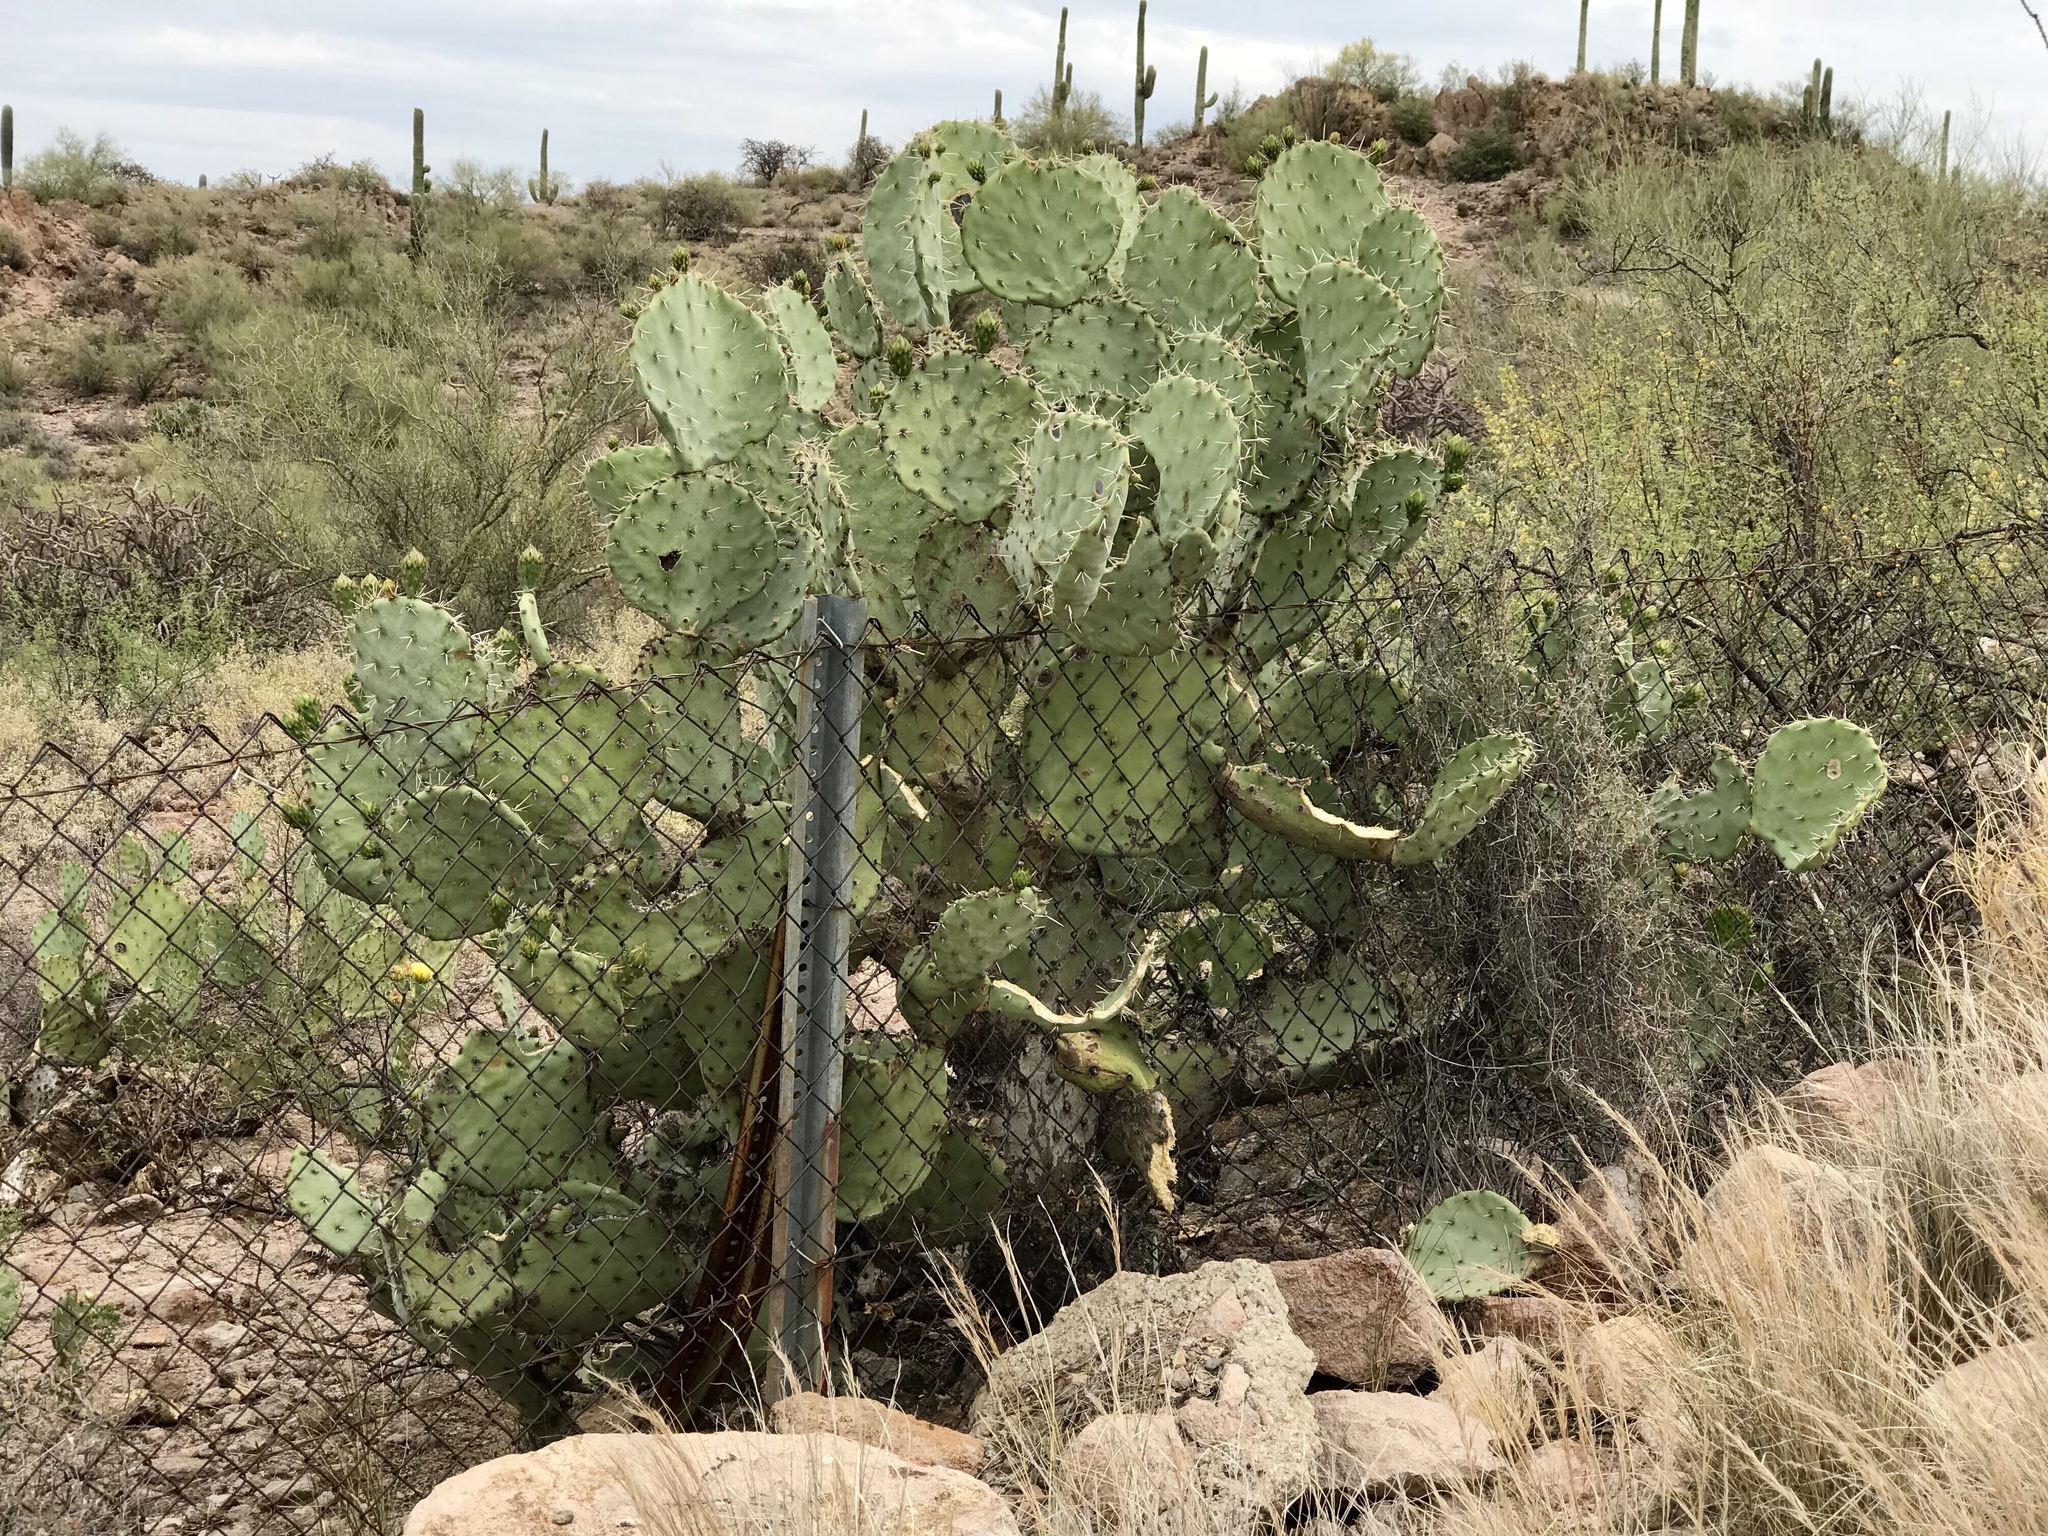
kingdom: Plantae
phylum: Tracheophyta
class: Magnoliopsida
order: Caryophyllales
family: Cactaceae
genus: Opuntia
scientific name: Opuntia engelmannii
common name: Cactus-apple
